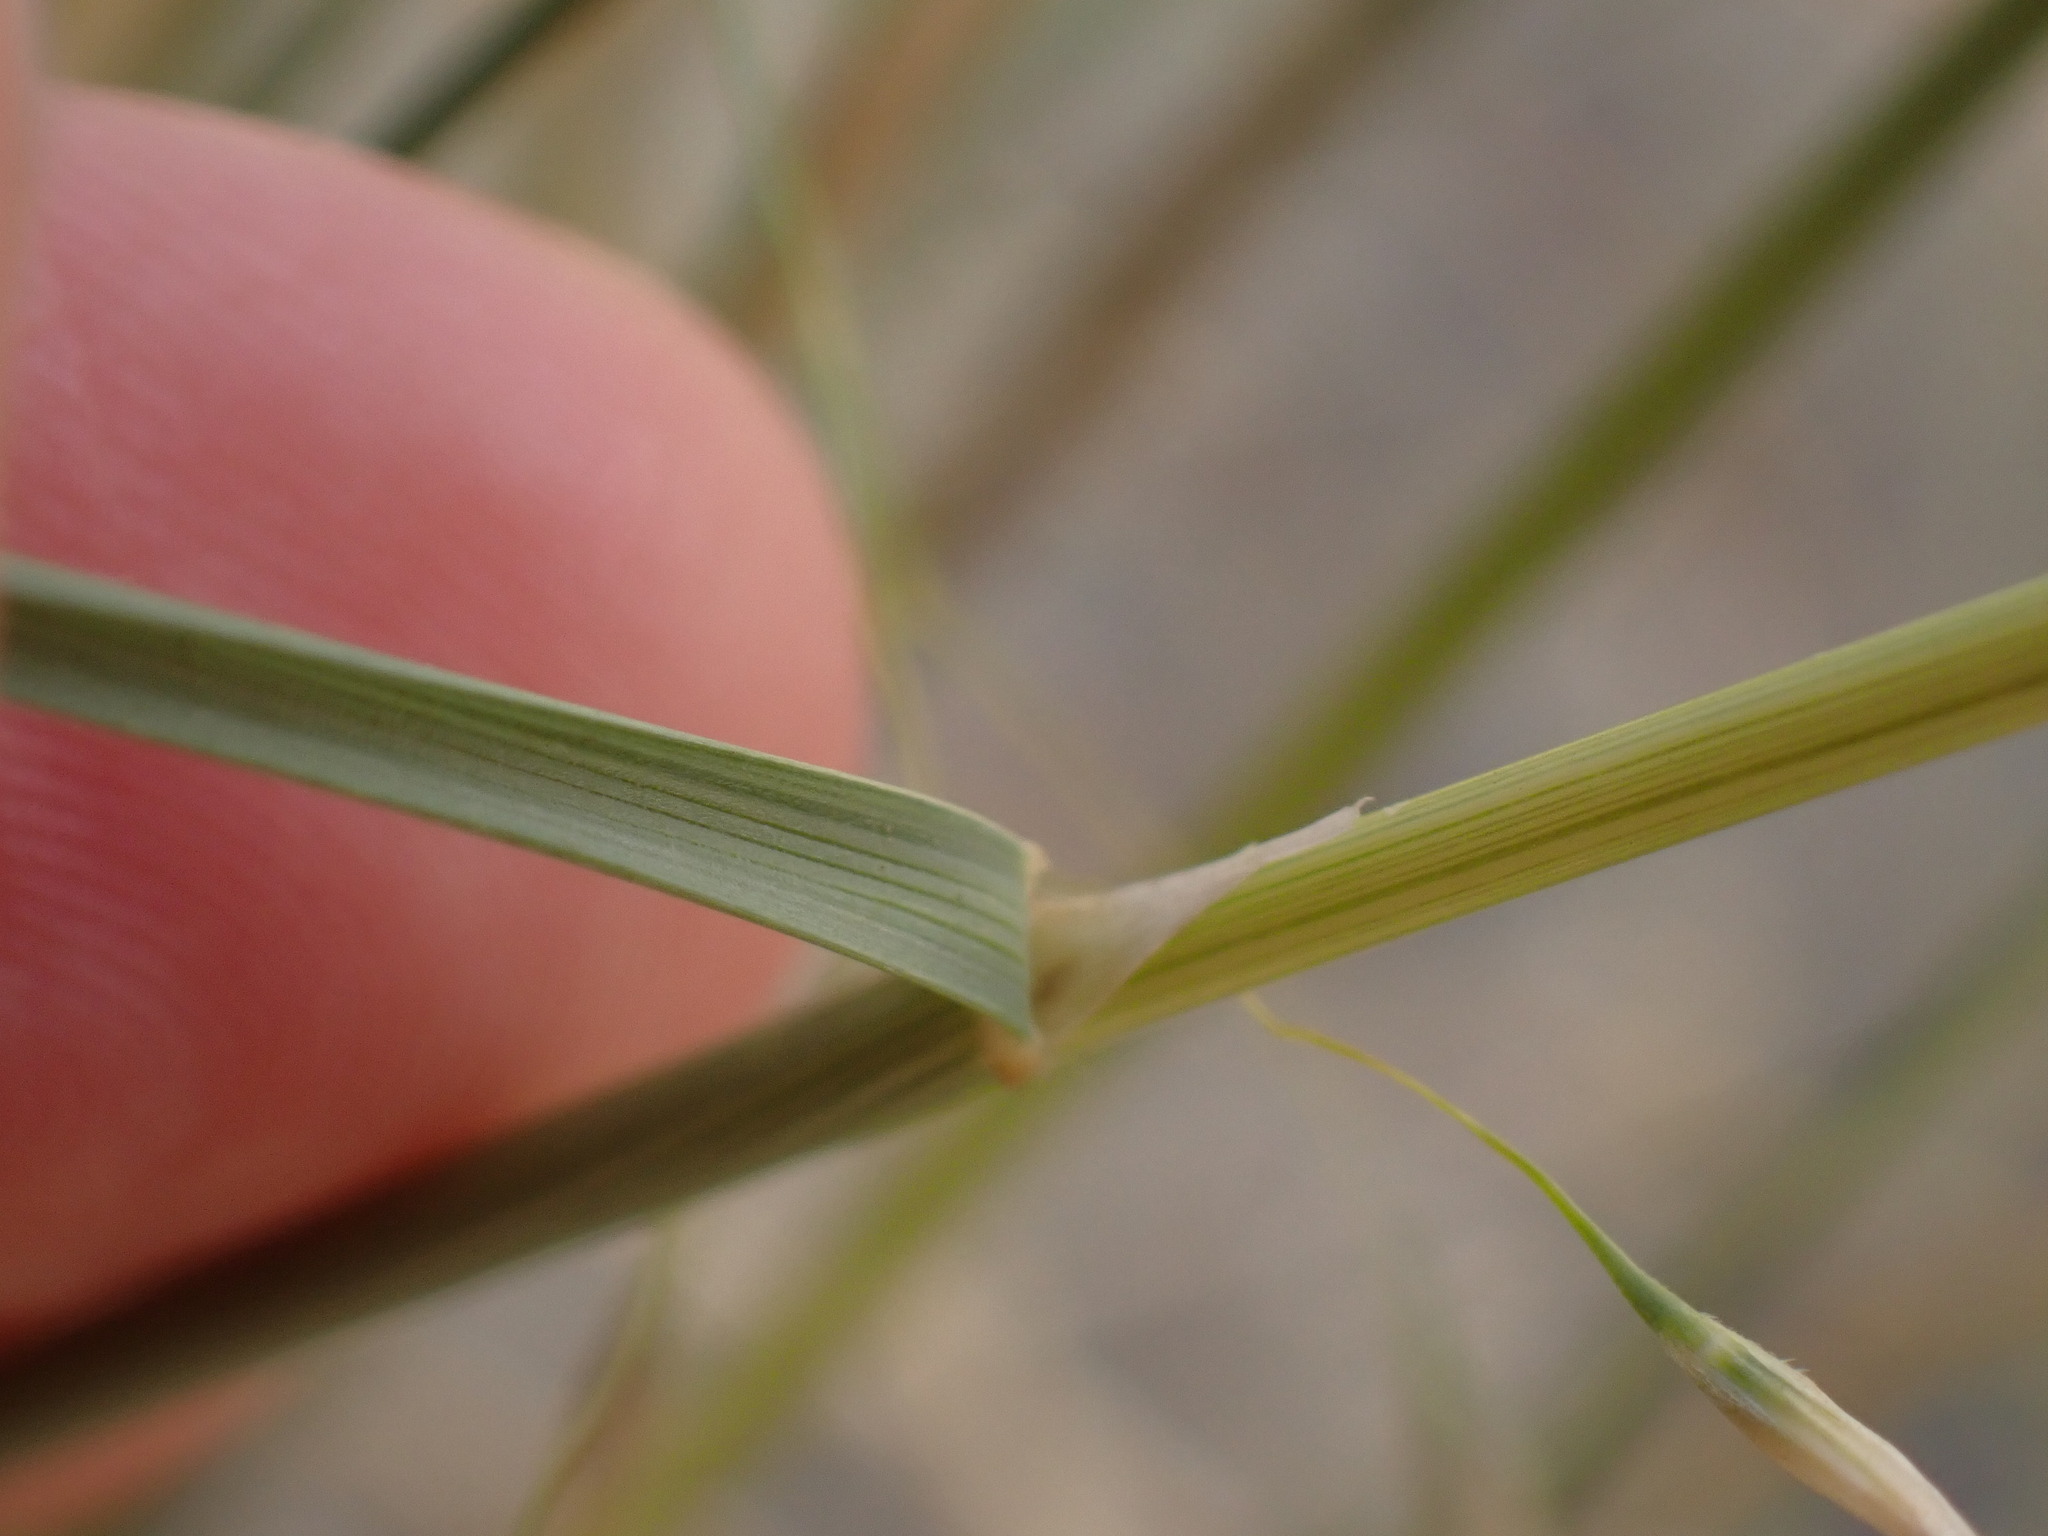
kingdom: Plantae
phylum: Tracheophyta
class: Liliopsida
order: Poales
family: Poaceae
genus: Eriocoma
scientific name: Eriocoma hymenoides
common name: Indian mountain ricegrass
